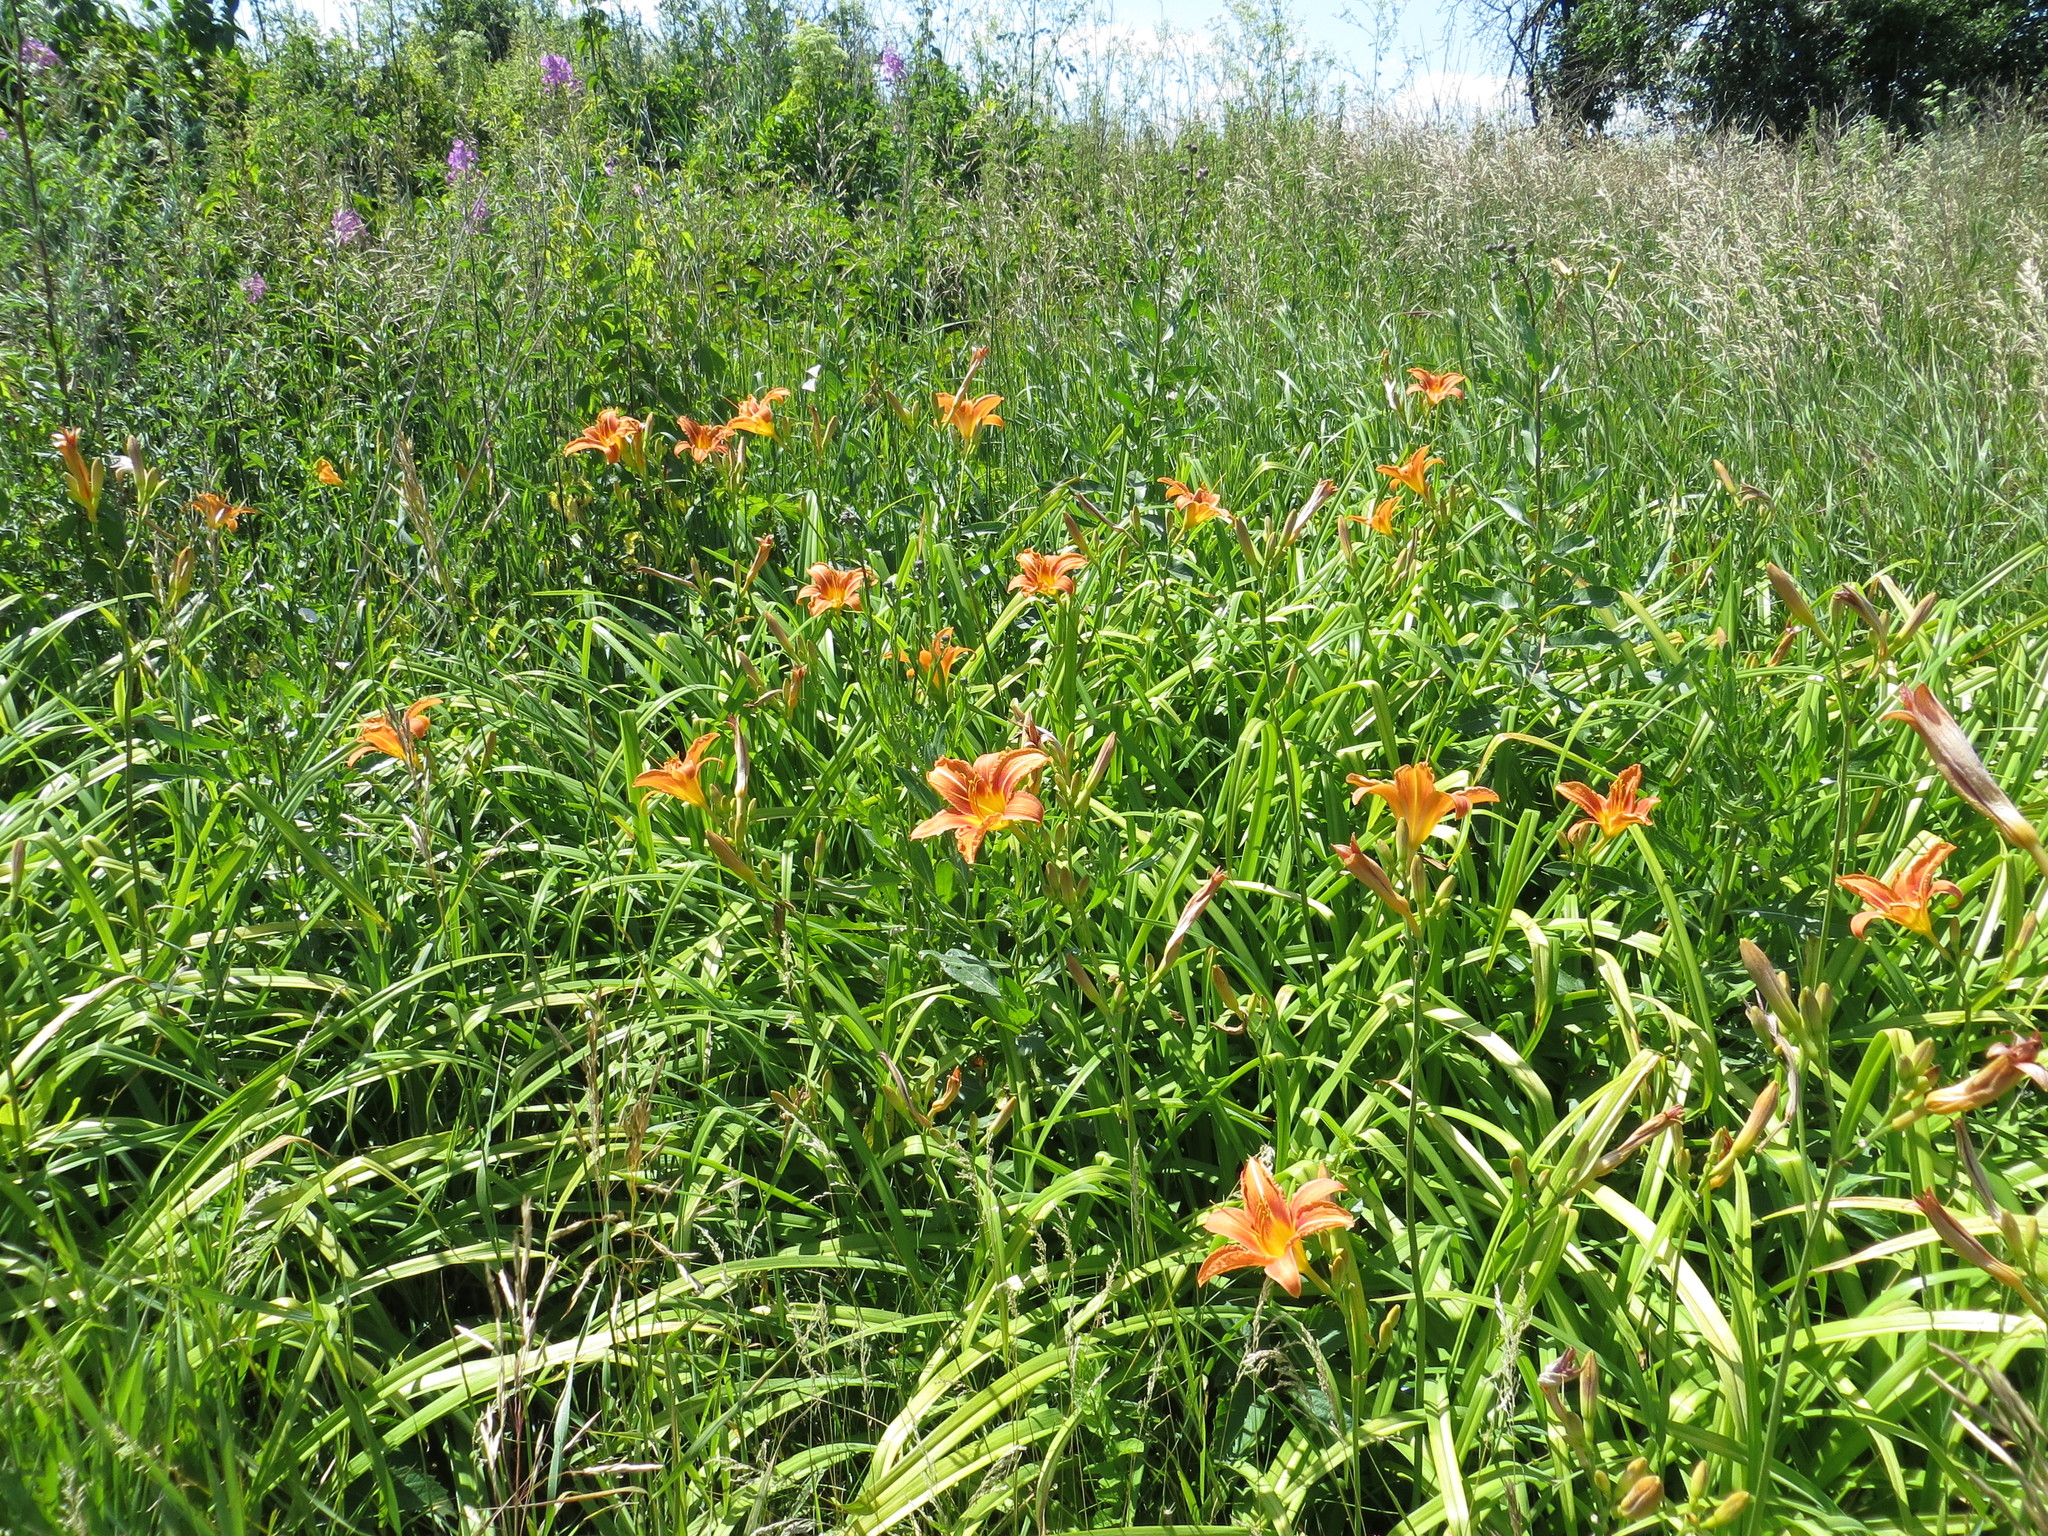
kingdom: Plantae
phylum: Tracheophyta
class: Liliopsida
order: Asparagales
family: Asphodelaceae
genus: Hemerocallis
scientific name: Hemerocallis fulva
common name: Orange day-lily
